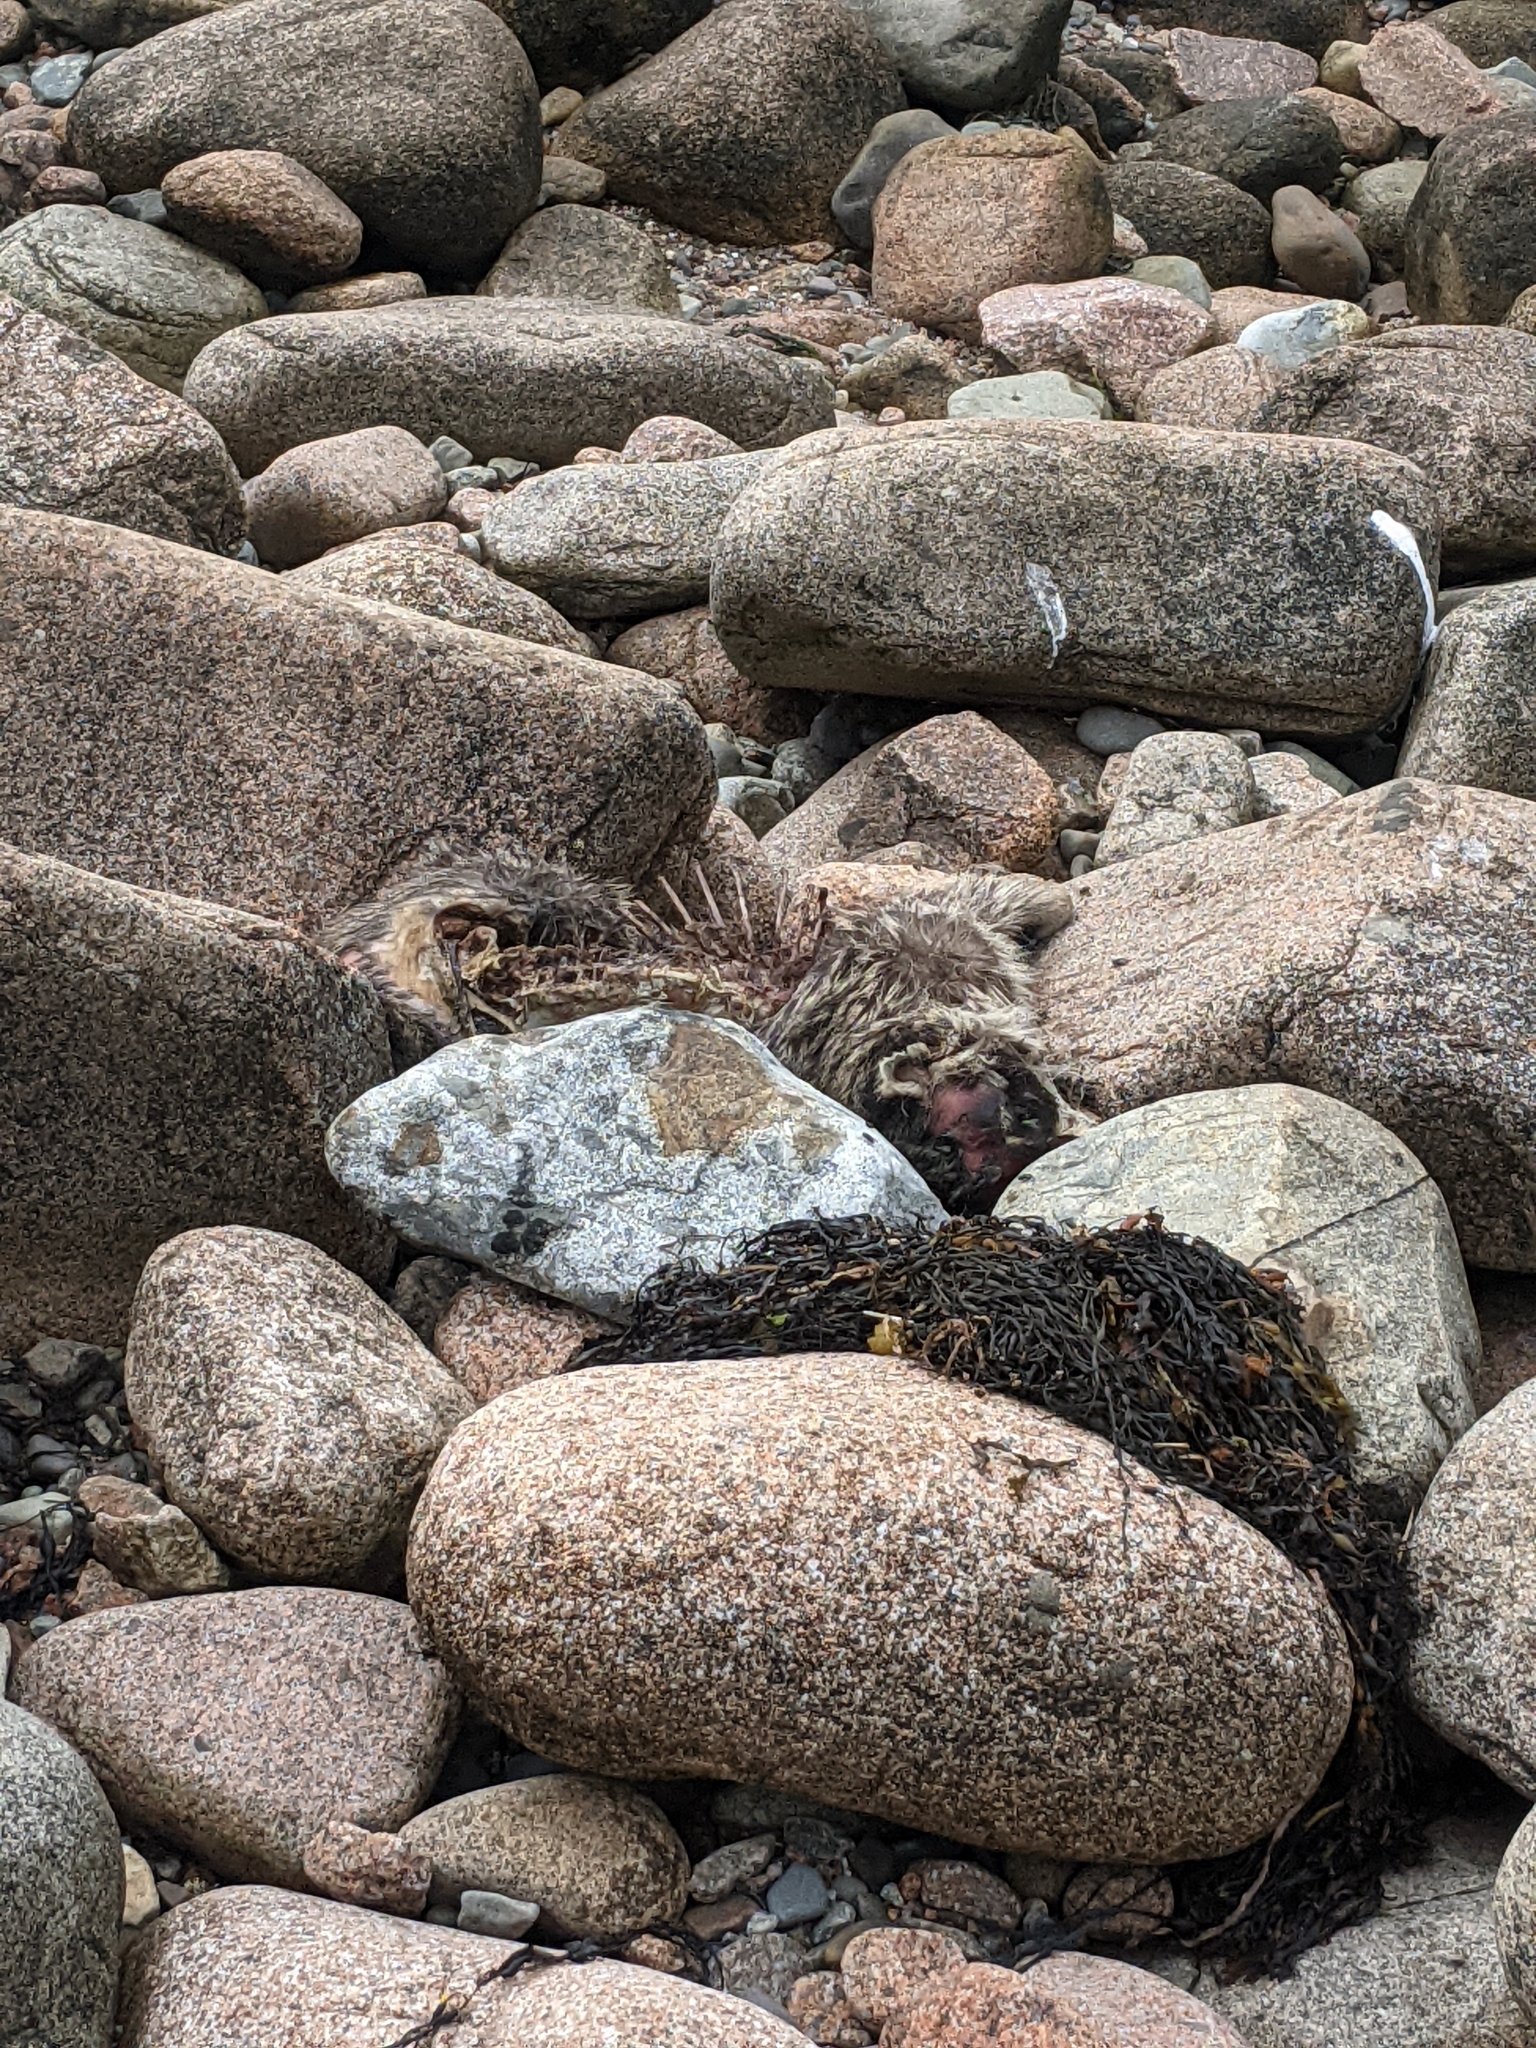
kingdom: Animalia
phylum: Chordata
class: Mammalia
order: Carnivora
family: Procyonidae
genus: Procyon
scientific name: Procyon lotor
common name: Raccoon
